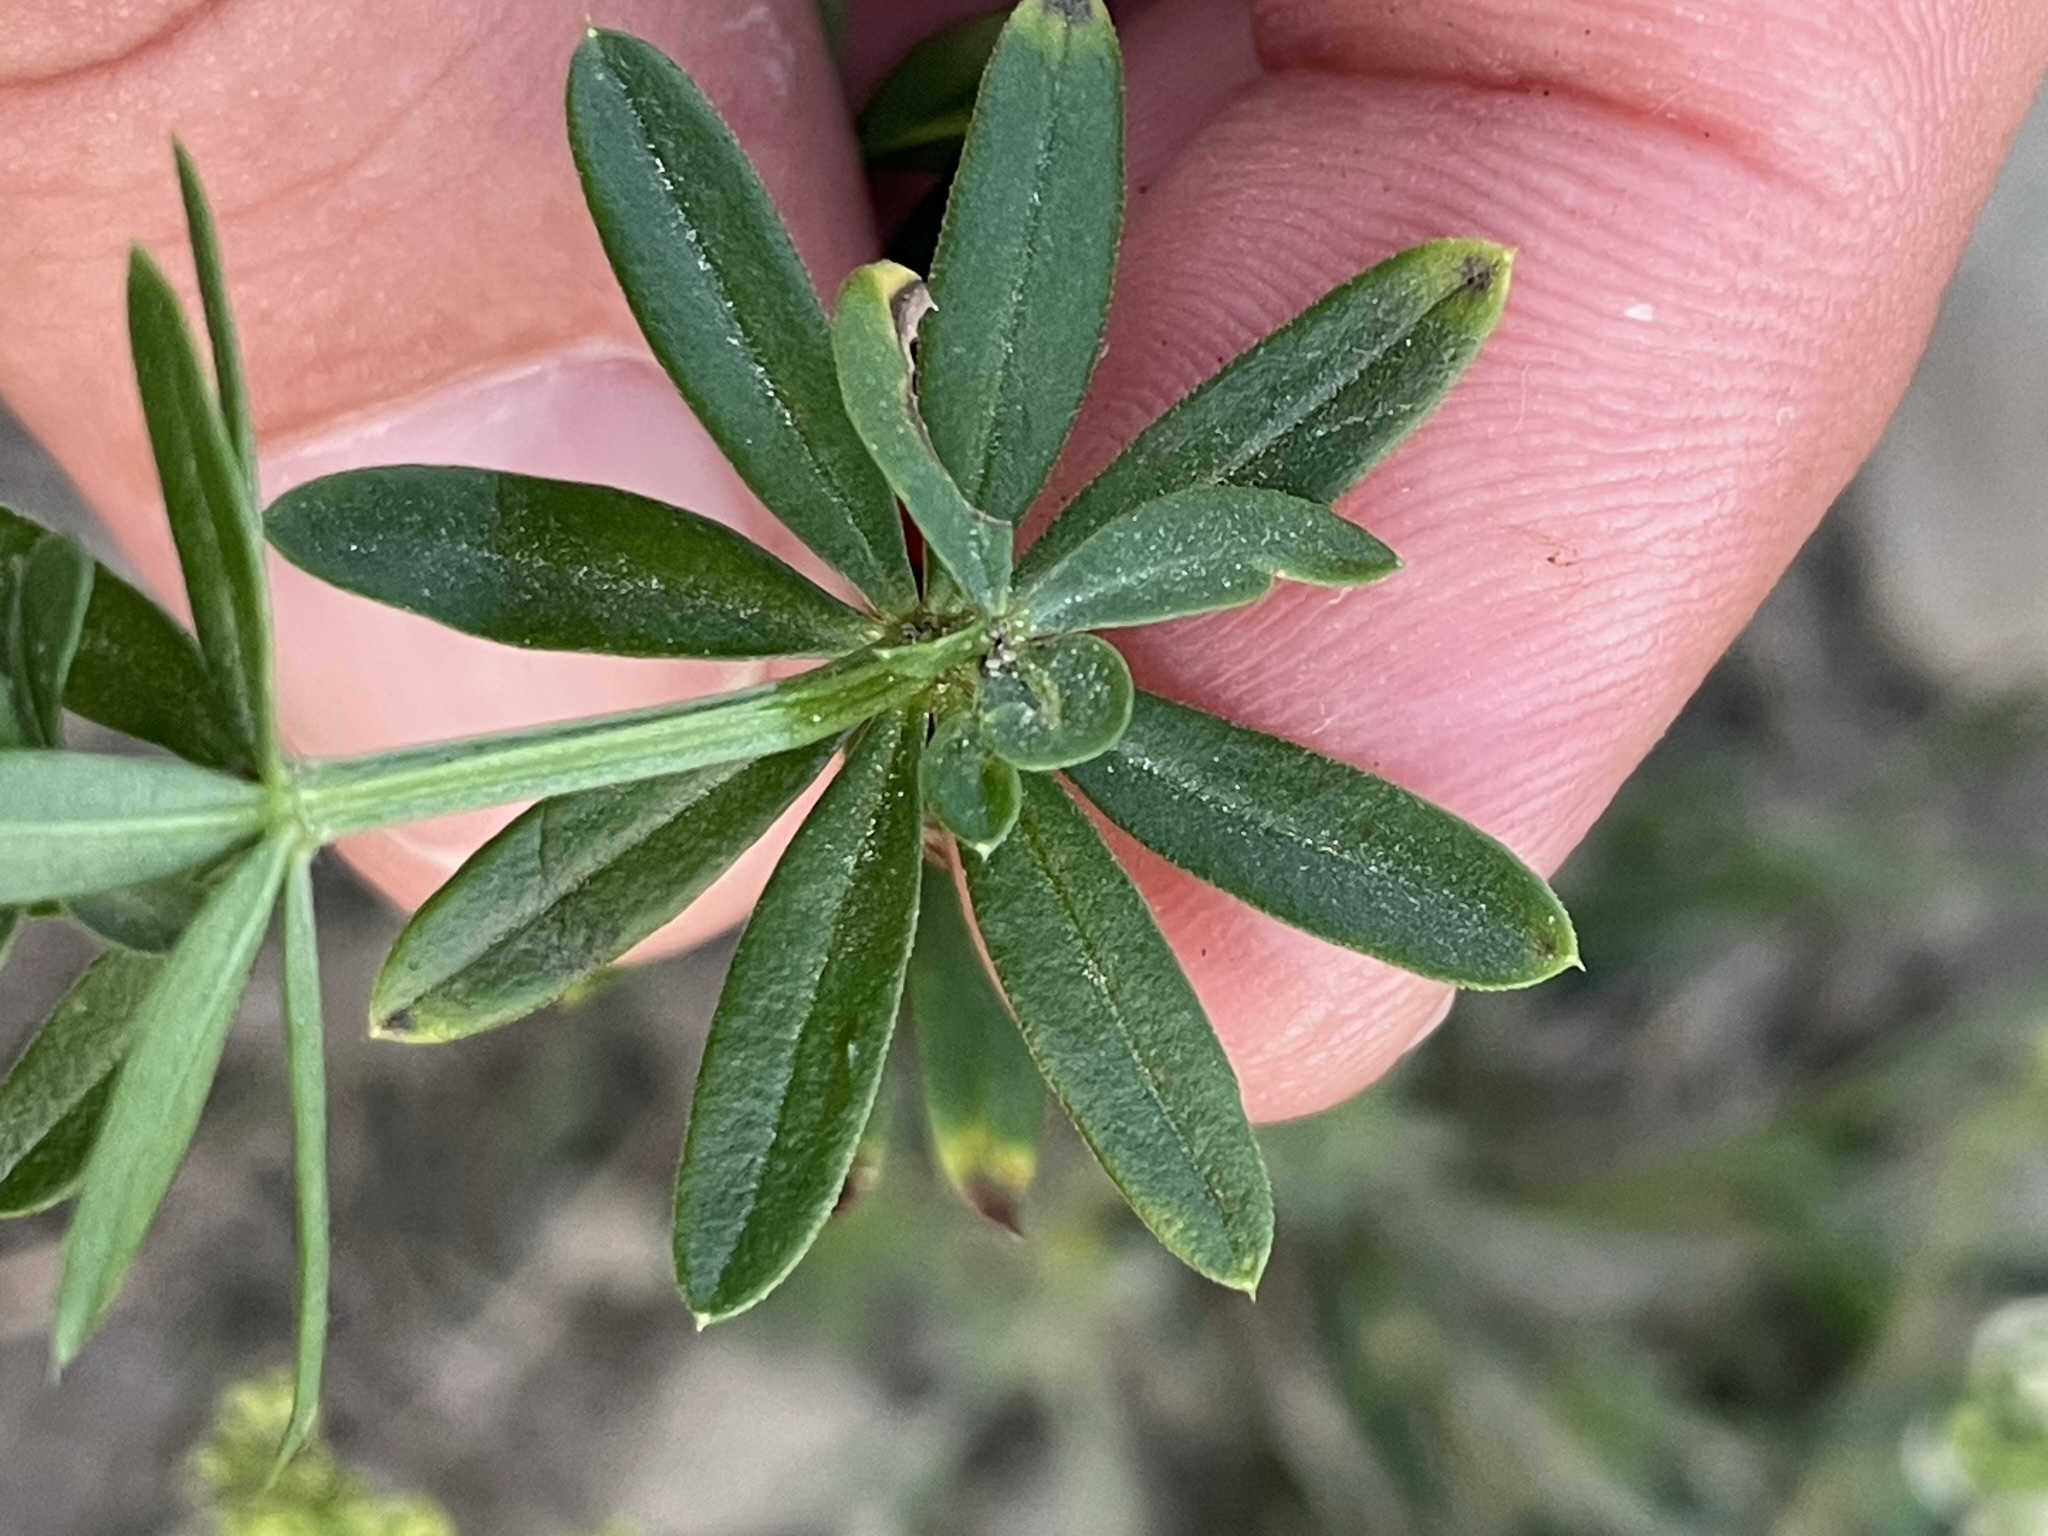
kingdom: Plantae
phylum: Tracheophyta
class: Magnoliopsida
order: Gentianales
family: Rubiaceae
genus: Galium
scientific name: Galium album
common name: White bedstraw
